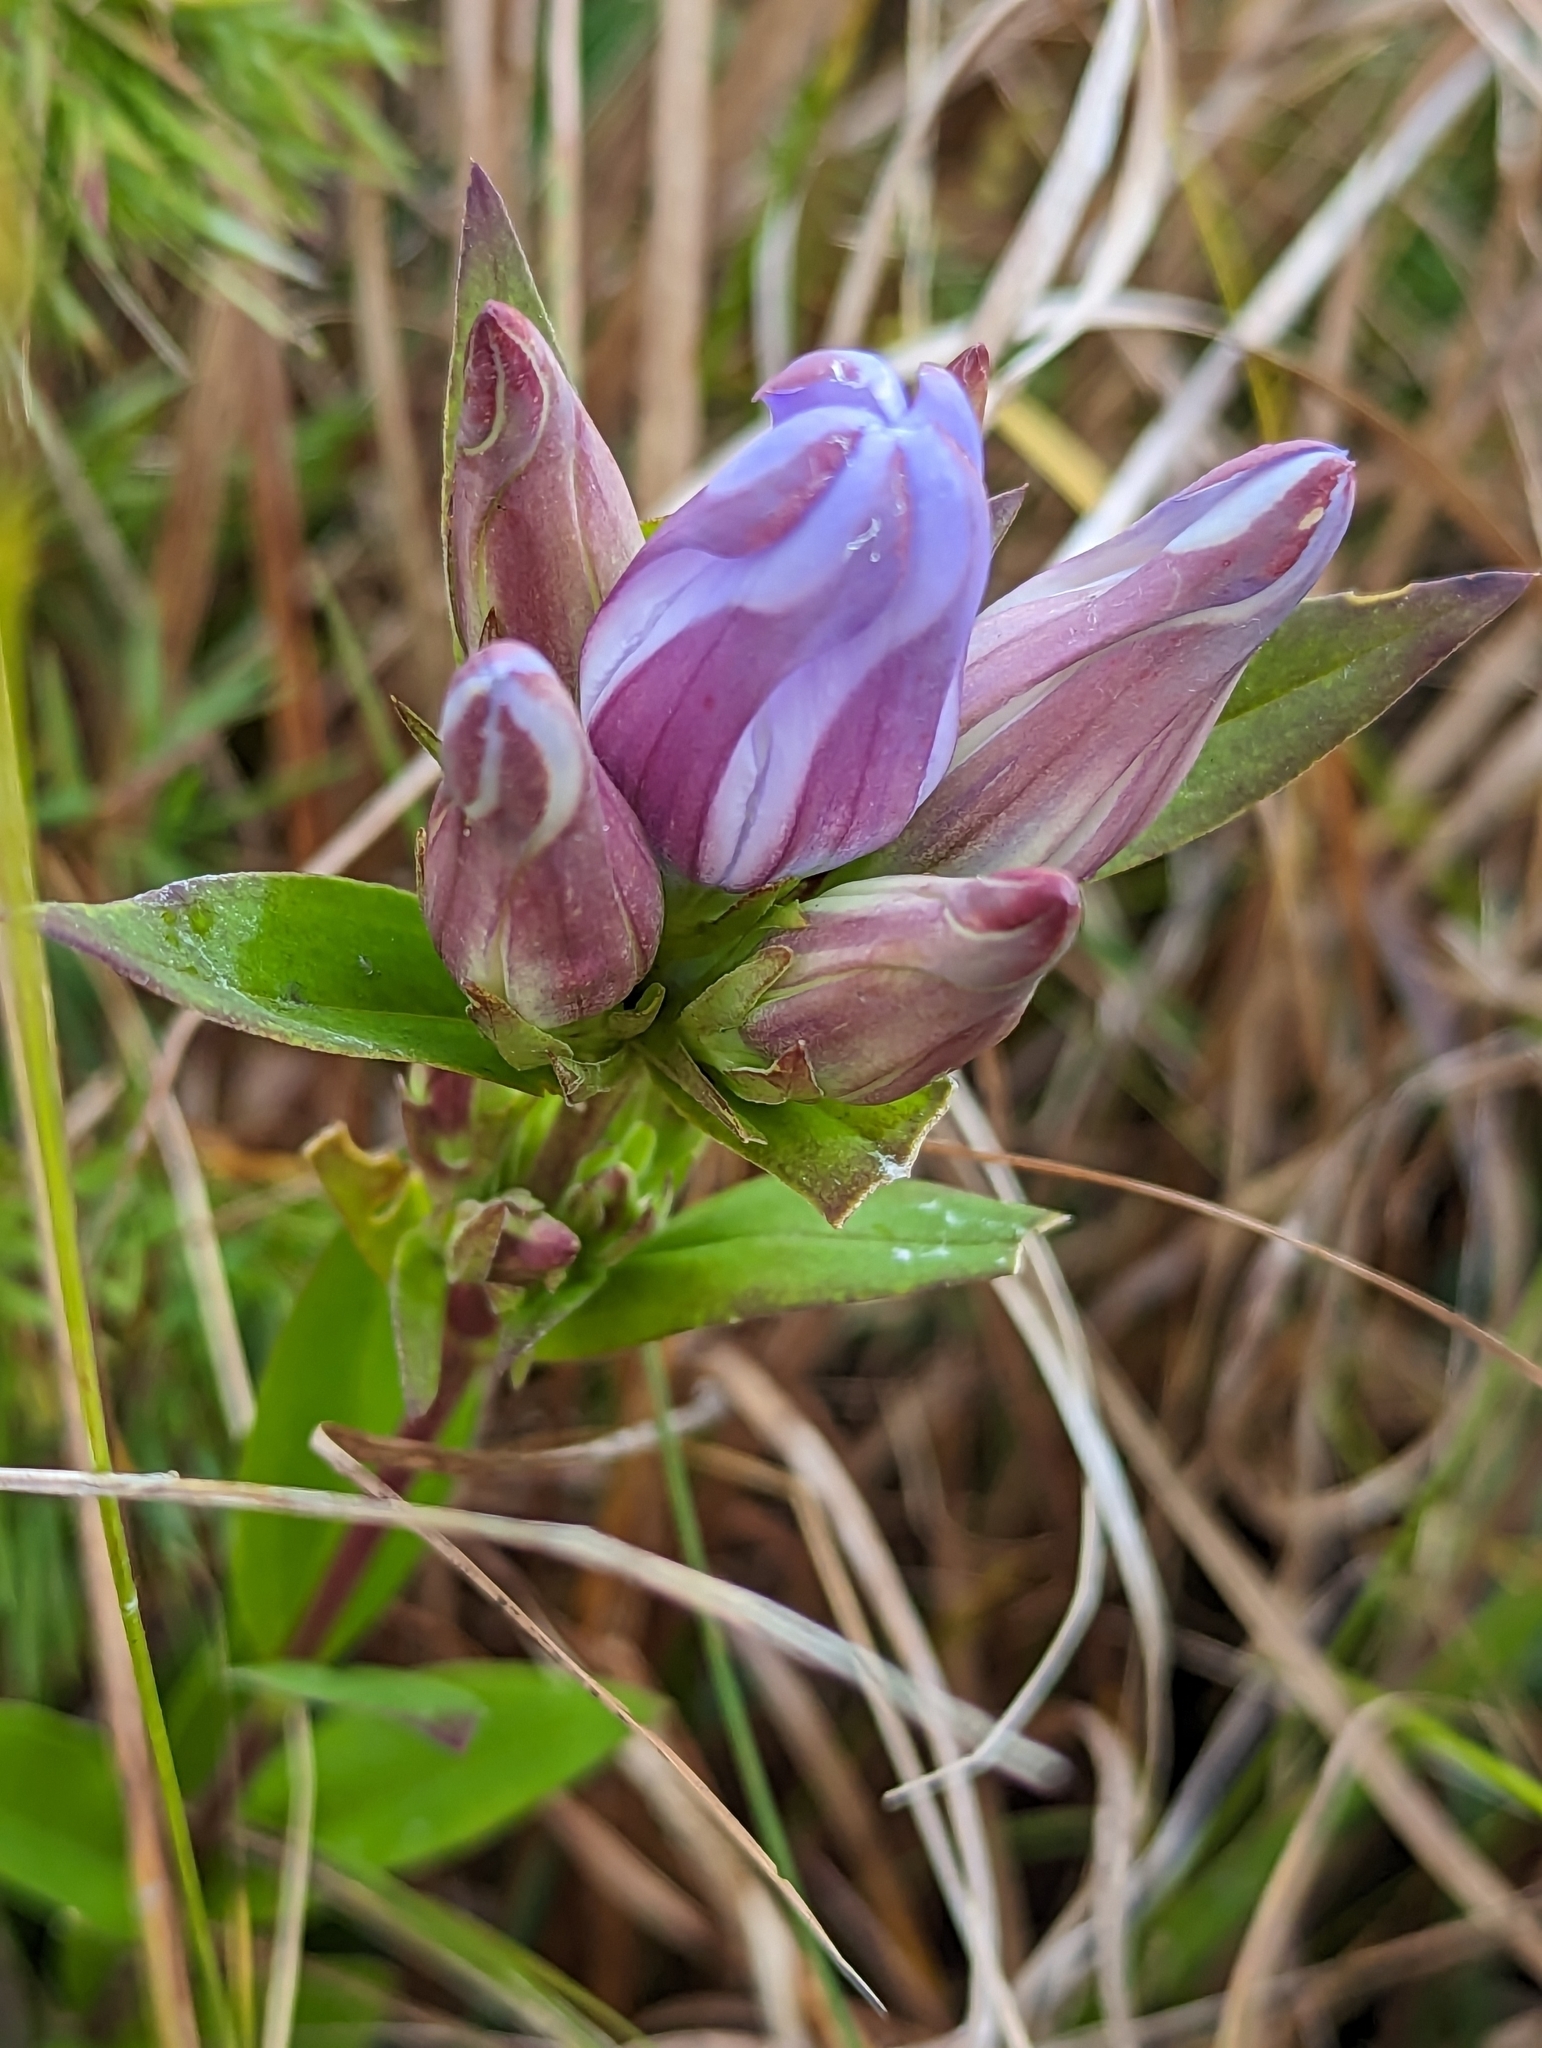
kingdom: Plantae
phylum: Tracheophyta
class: Magnoliopsida
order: Gentianales
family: Gentianaceae
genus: Gentiana
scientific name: Gentiana catesbaei
